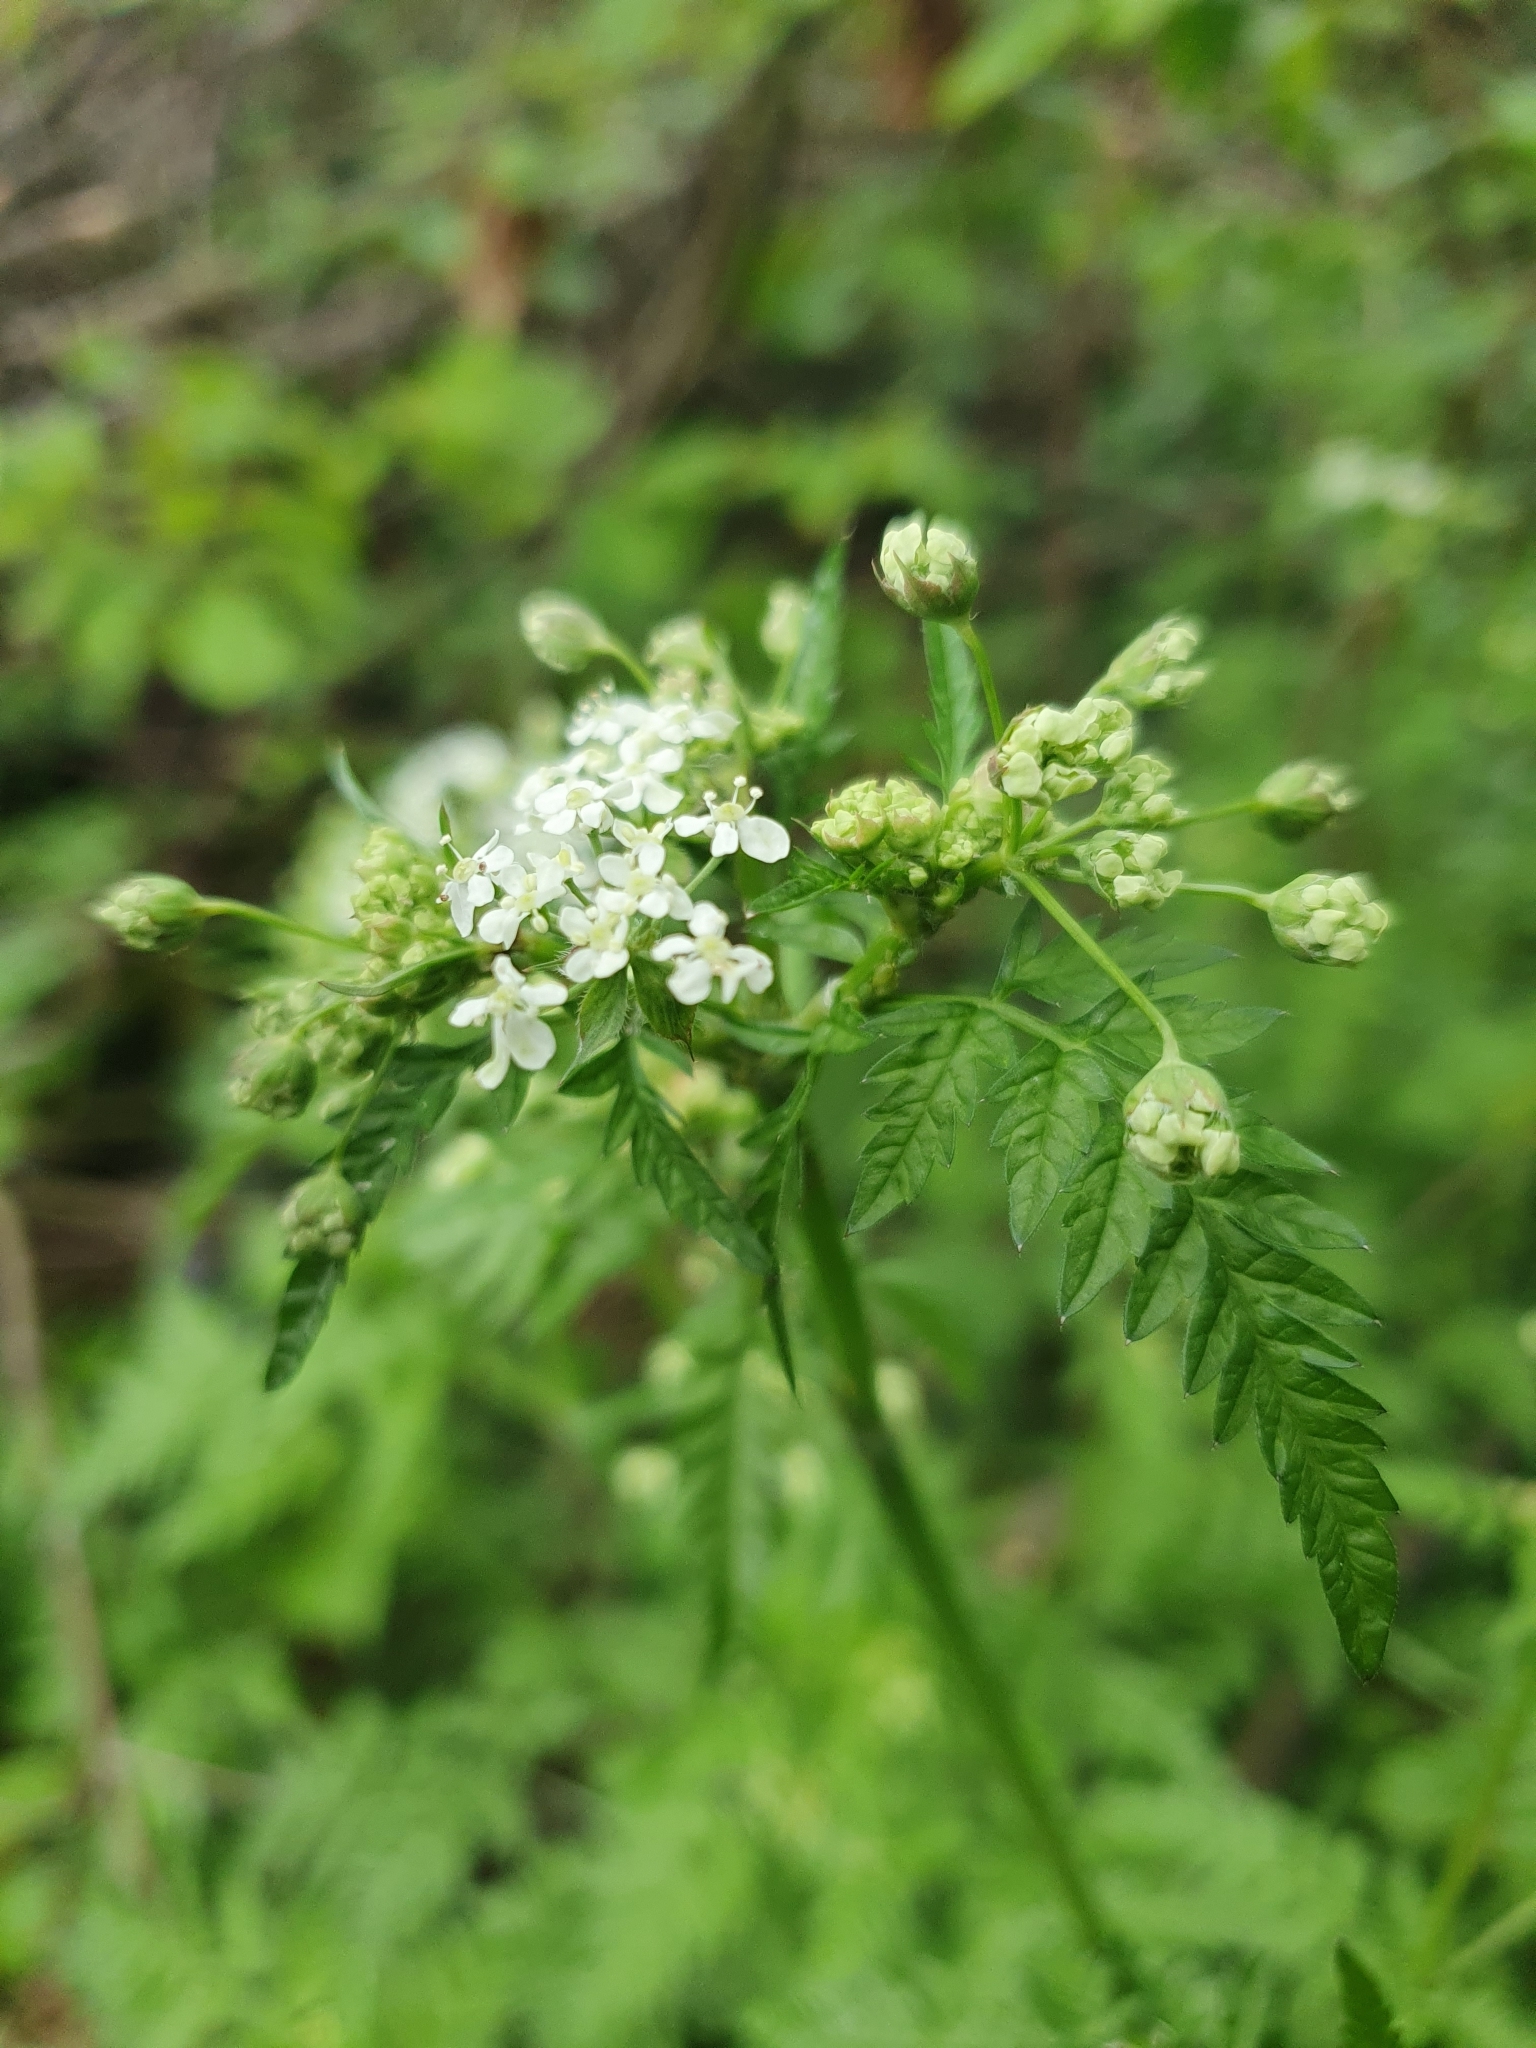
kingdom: Plantae
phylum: Tracheophyta
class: Magnoliopsida
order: Apiales
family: Apiaceae
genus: Anthriscus
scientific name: Anthriscus sylvestris
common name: Cow parsley
